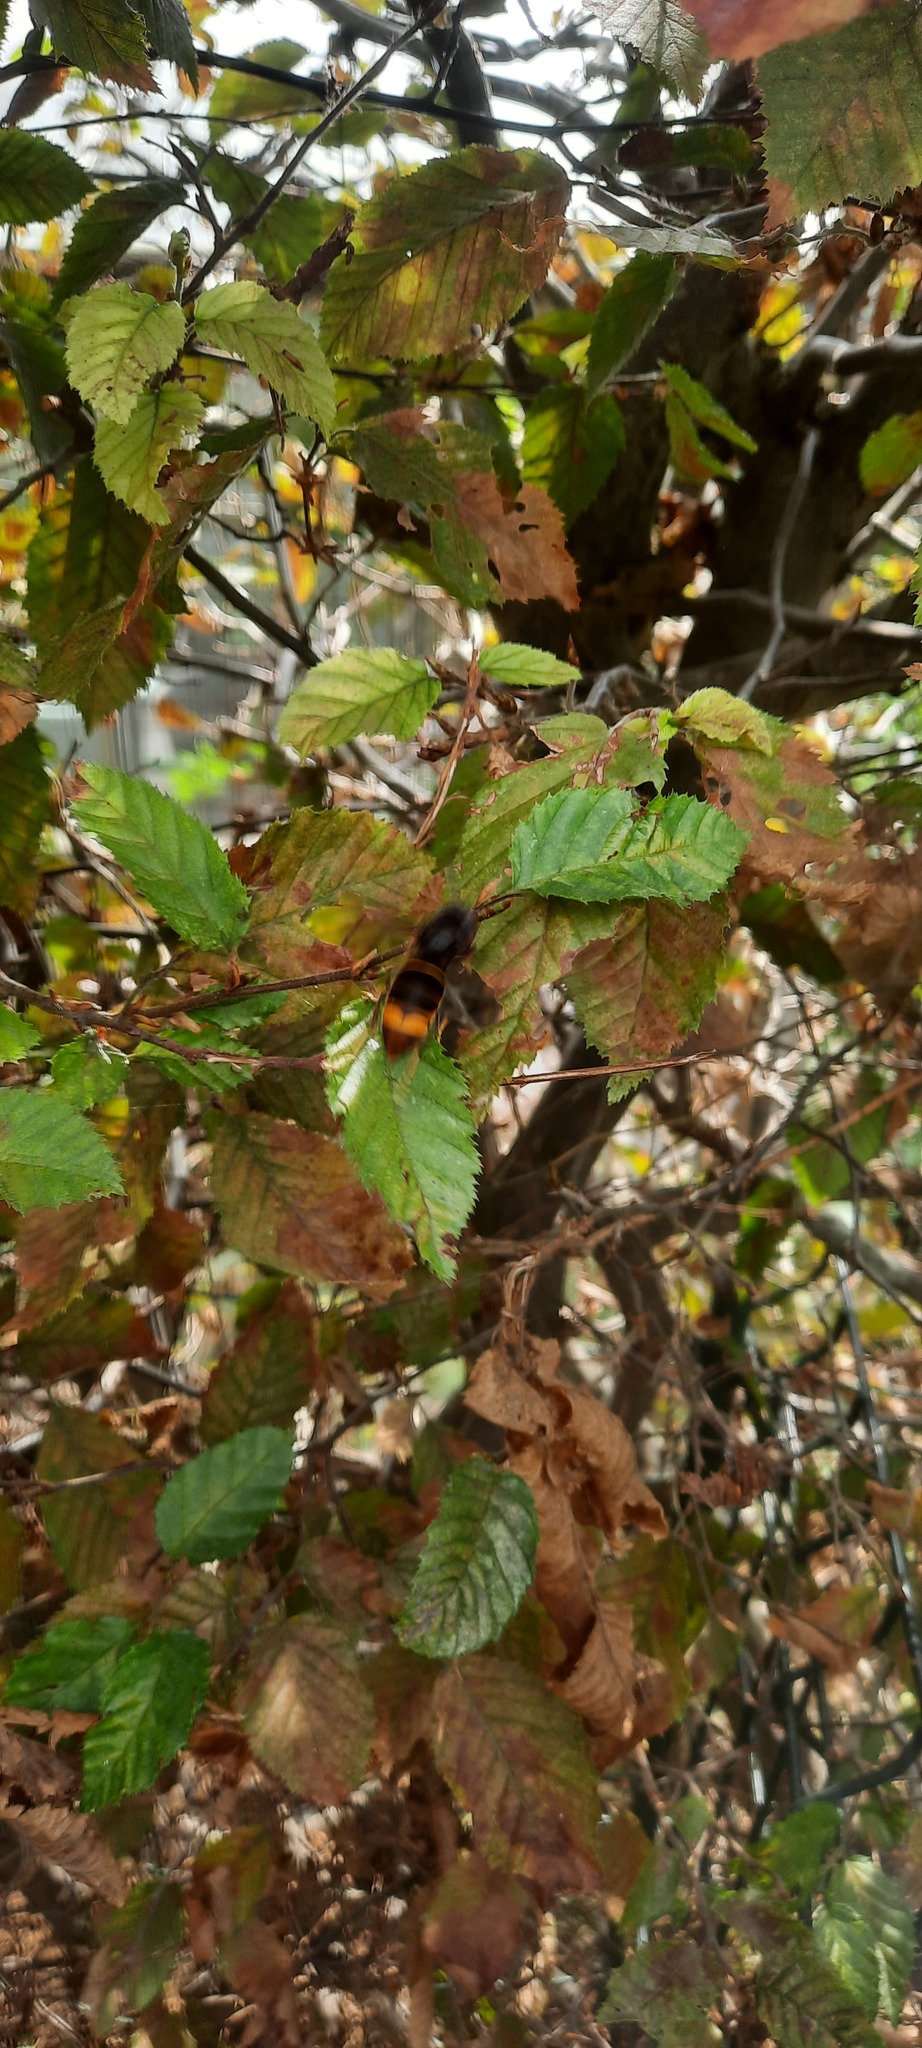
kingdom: Animalia
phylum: Arthropoda
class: Insecta
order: Hymenoptera
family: Vespidae
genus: Vespa
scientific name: Vespa velutina
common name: Asian hornet
